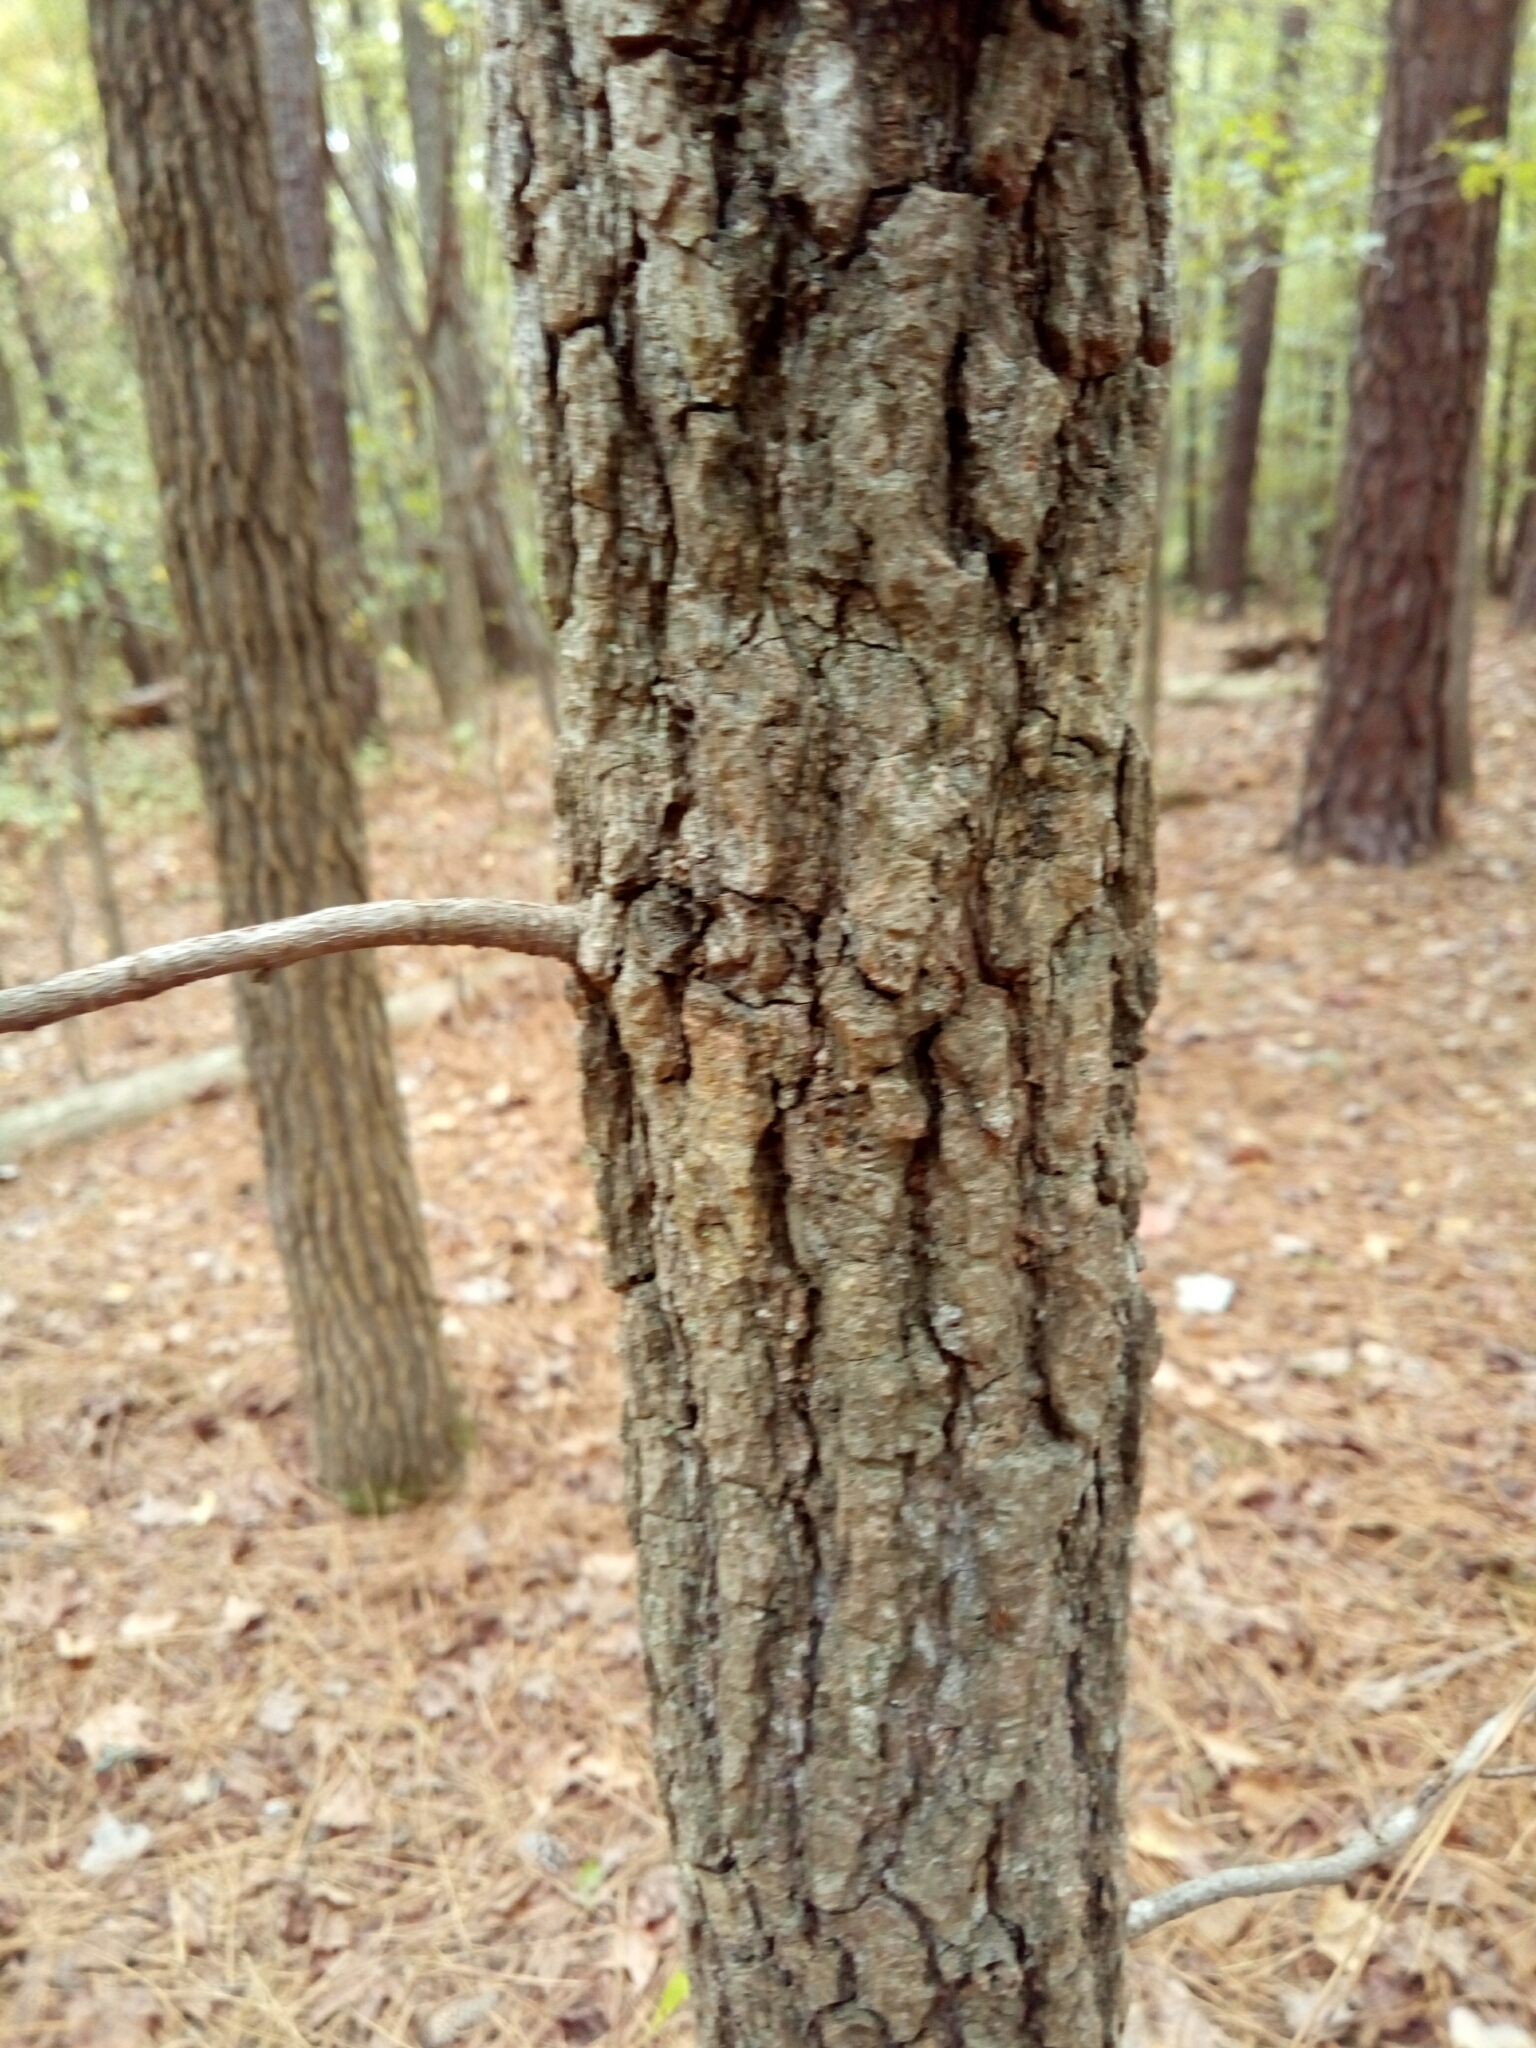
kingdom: Plantae
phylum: Tracheophyta
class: Magnoliopsida
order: Saxifragales
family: Altingiaceae
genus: Liquidambar
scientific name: Liquidambar styraciflua
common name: Sweet gum
